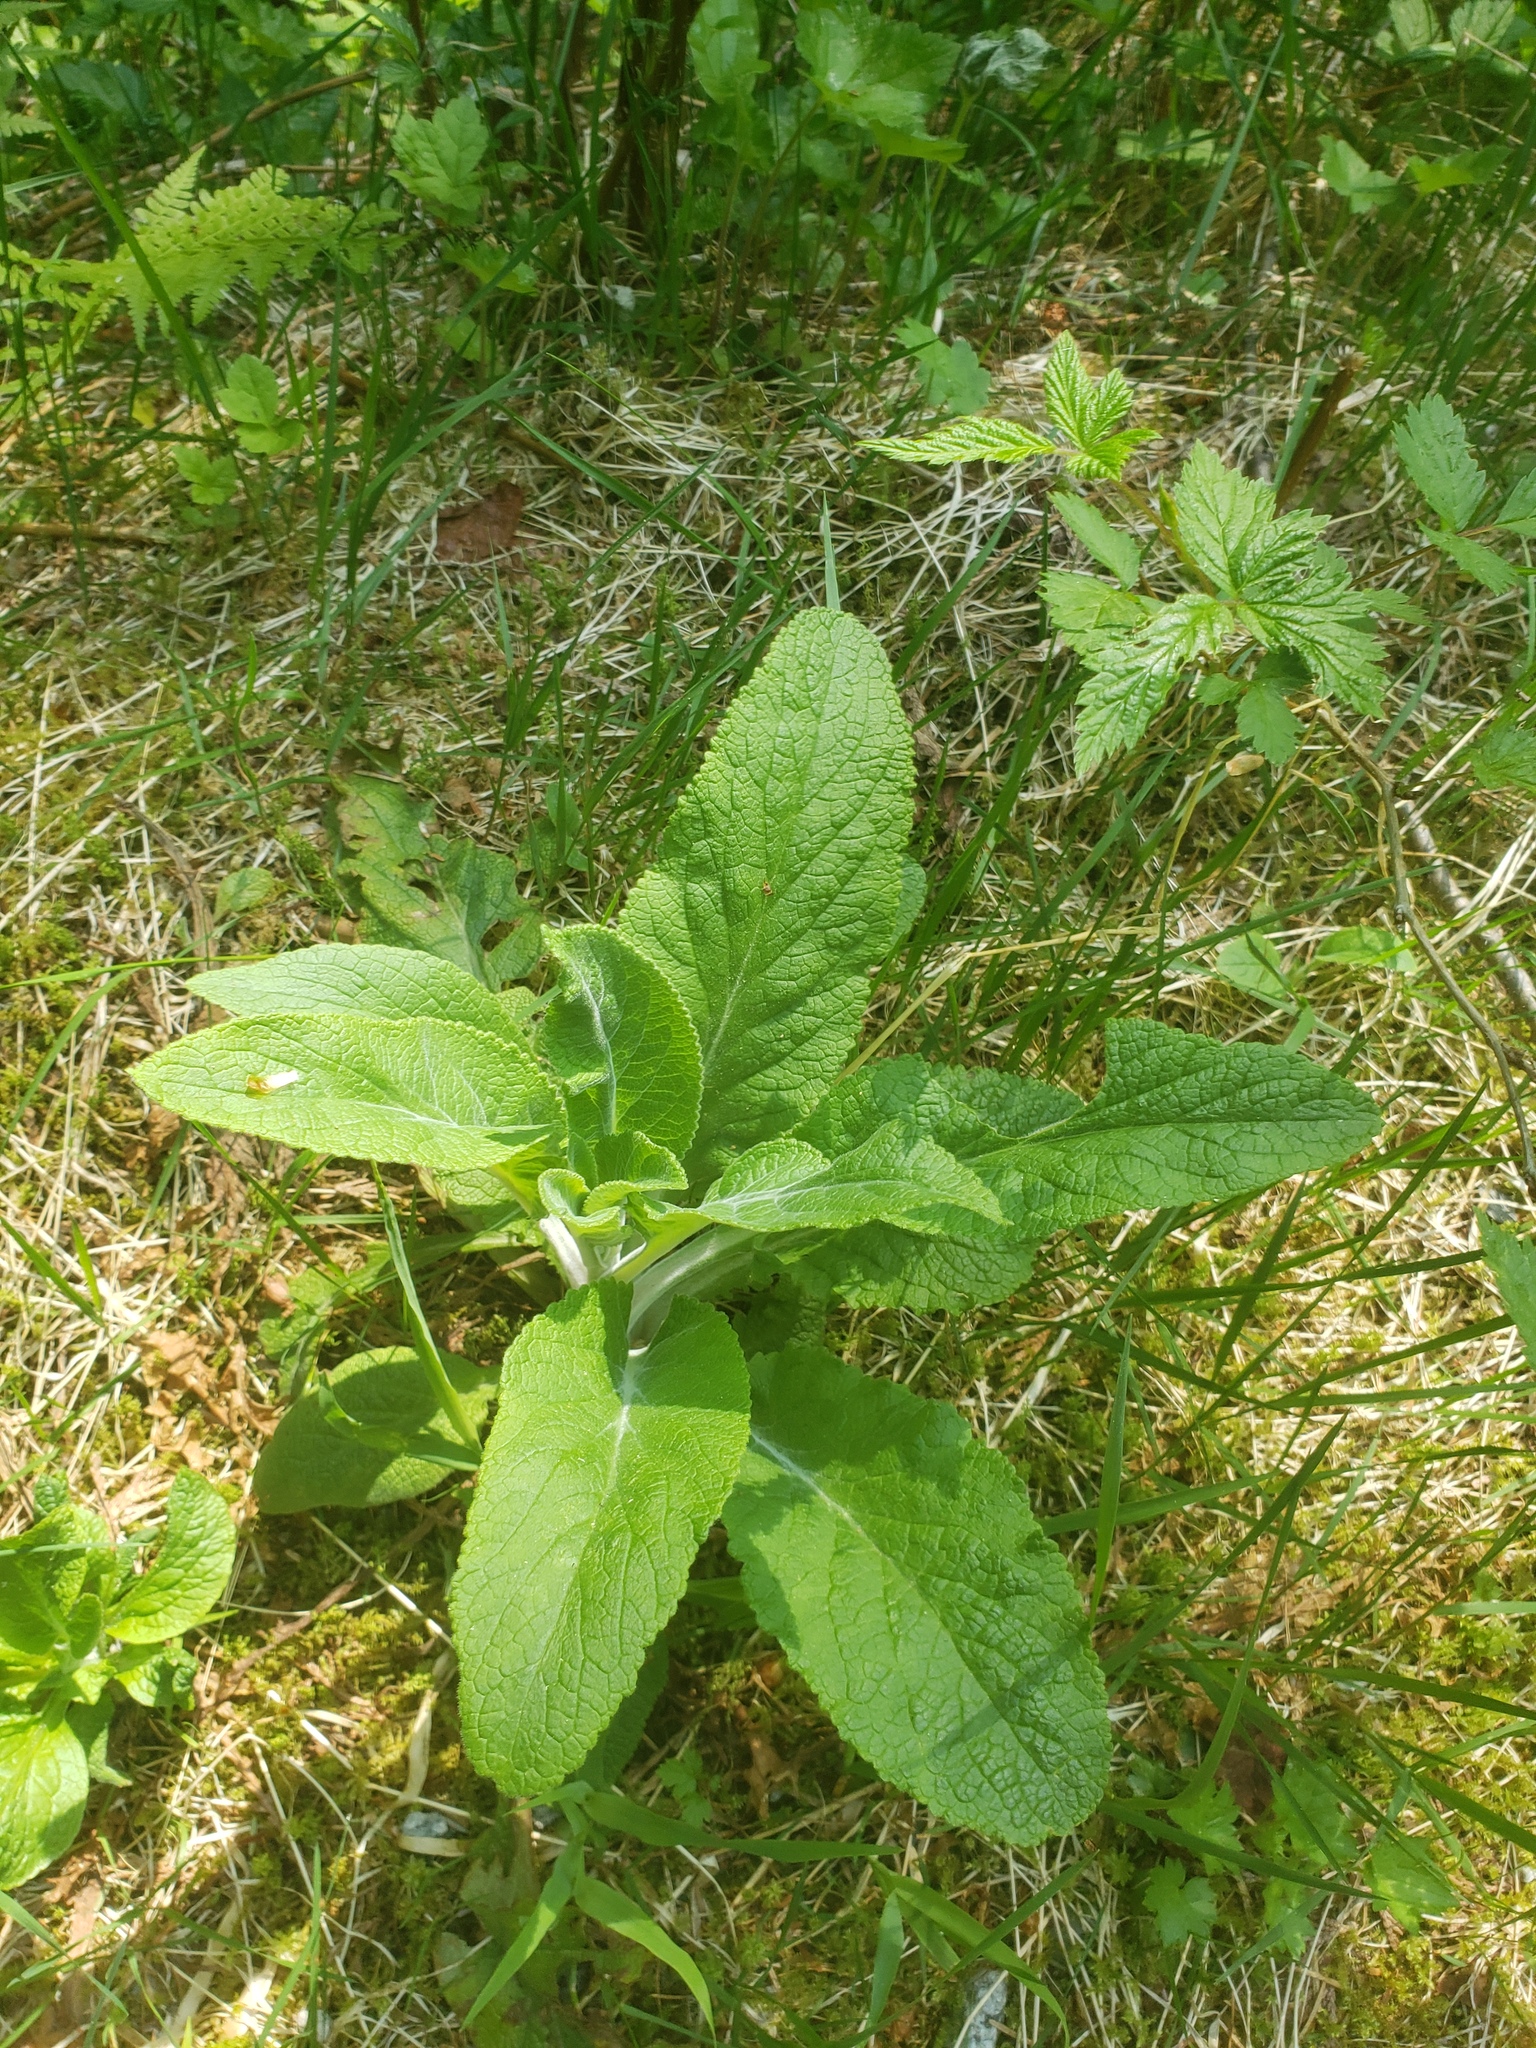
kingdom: Plantae
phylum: Tracheophyta
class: Magnoliopsida
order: Lamiales
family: Plantaginaceae
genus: Digitalis
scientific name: Digitalis purpurea
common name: Foxglove
